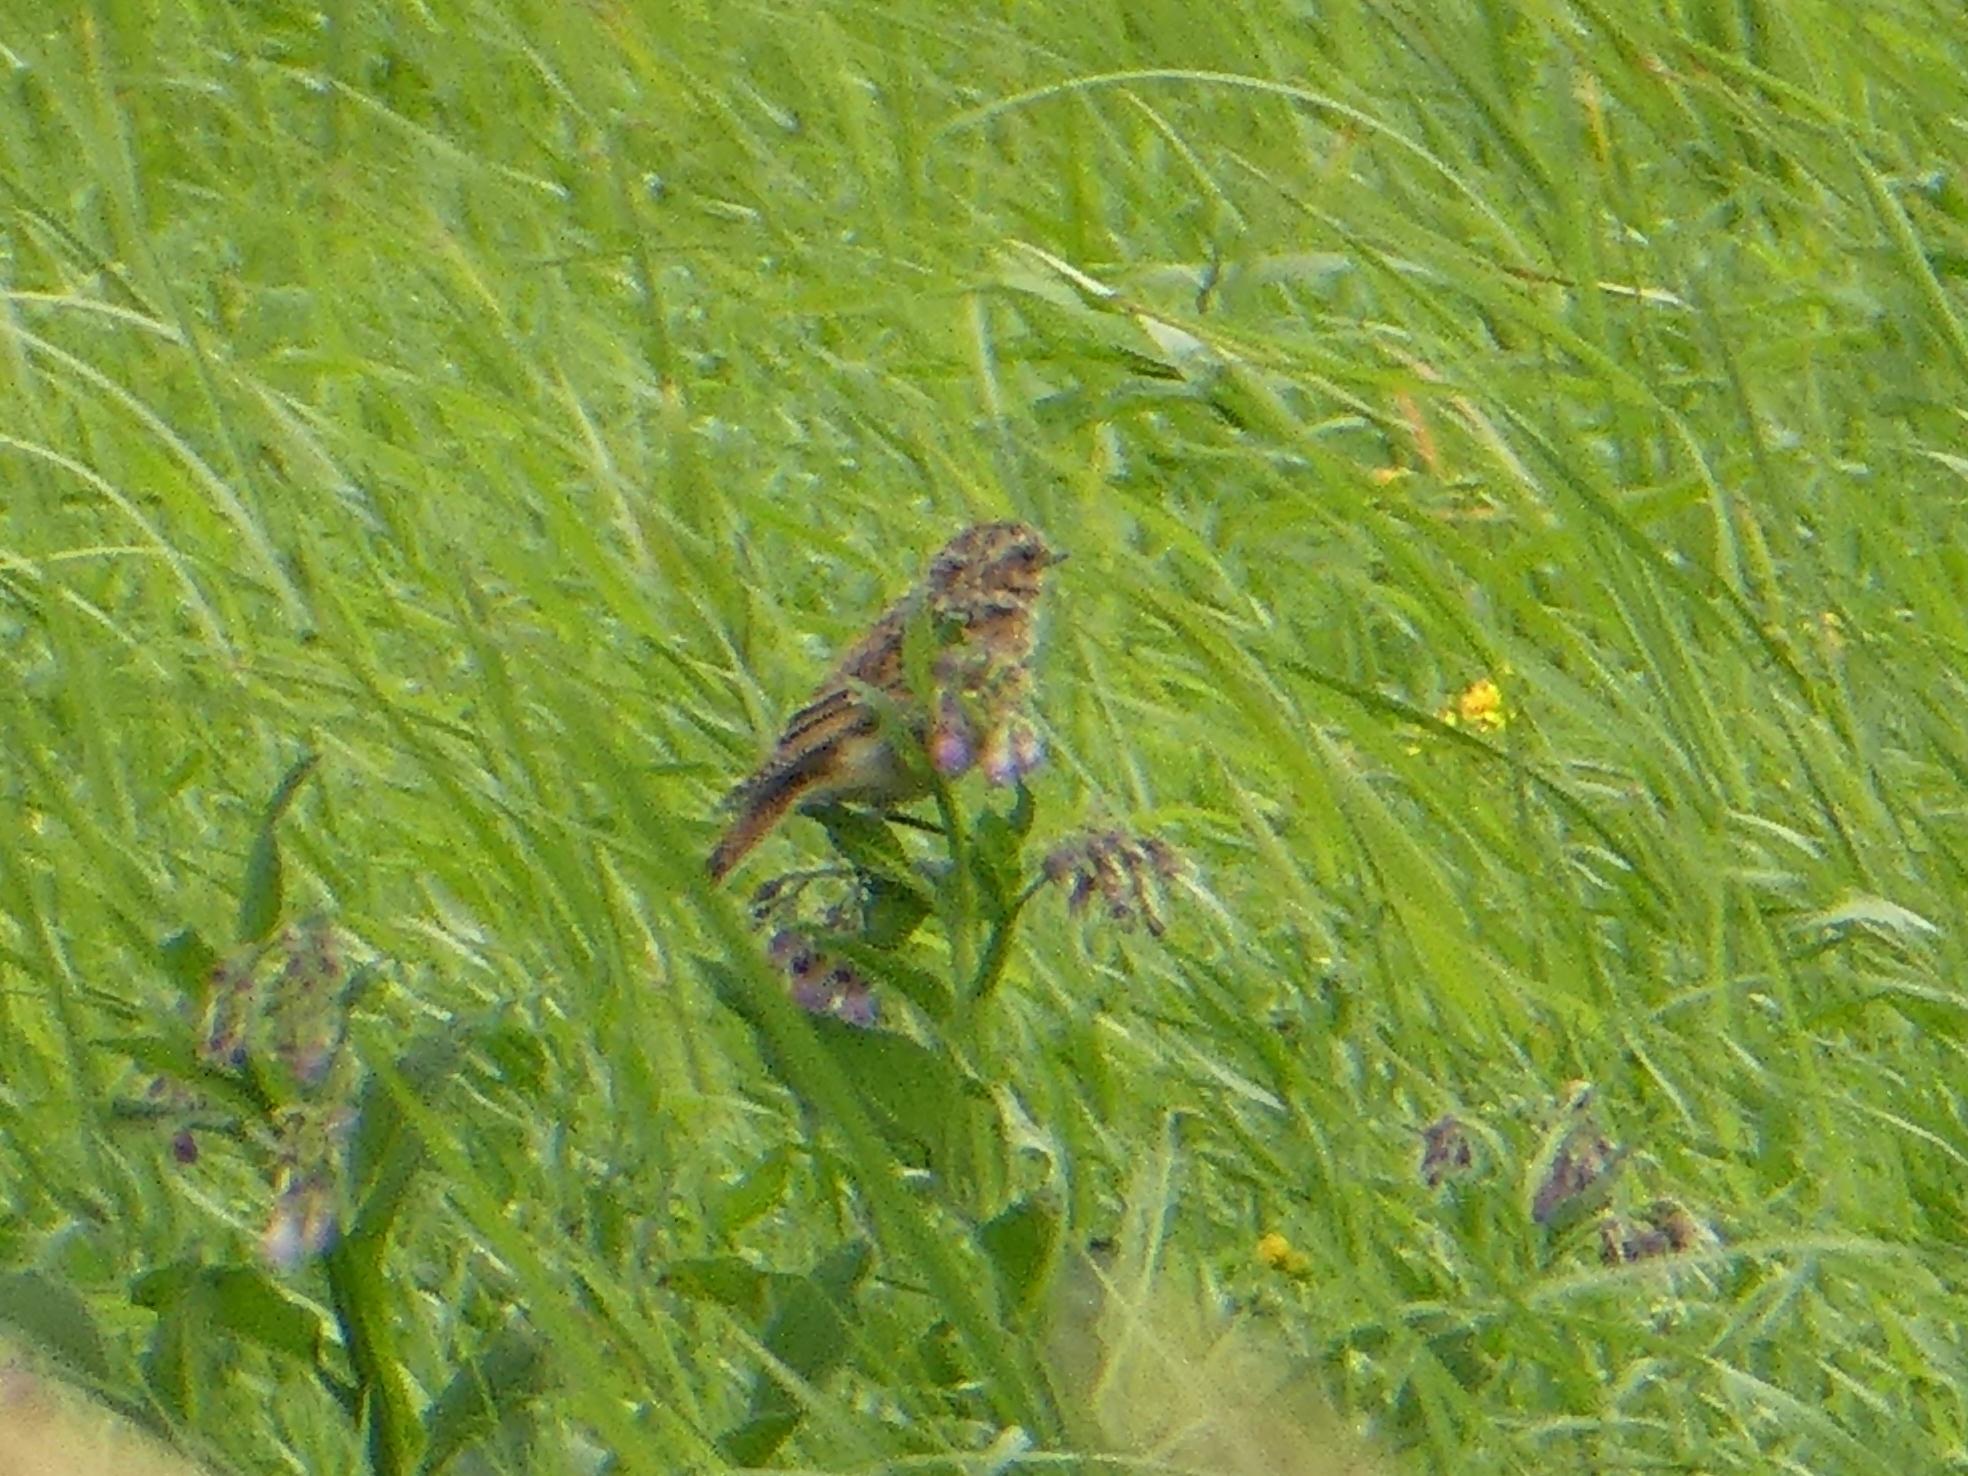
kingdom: Animalia
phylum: Chordata
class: Aves
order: Passeriformes
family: Muscicapidae
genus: Saxicola
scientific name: Saxicola rubetra
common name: Whinchat
